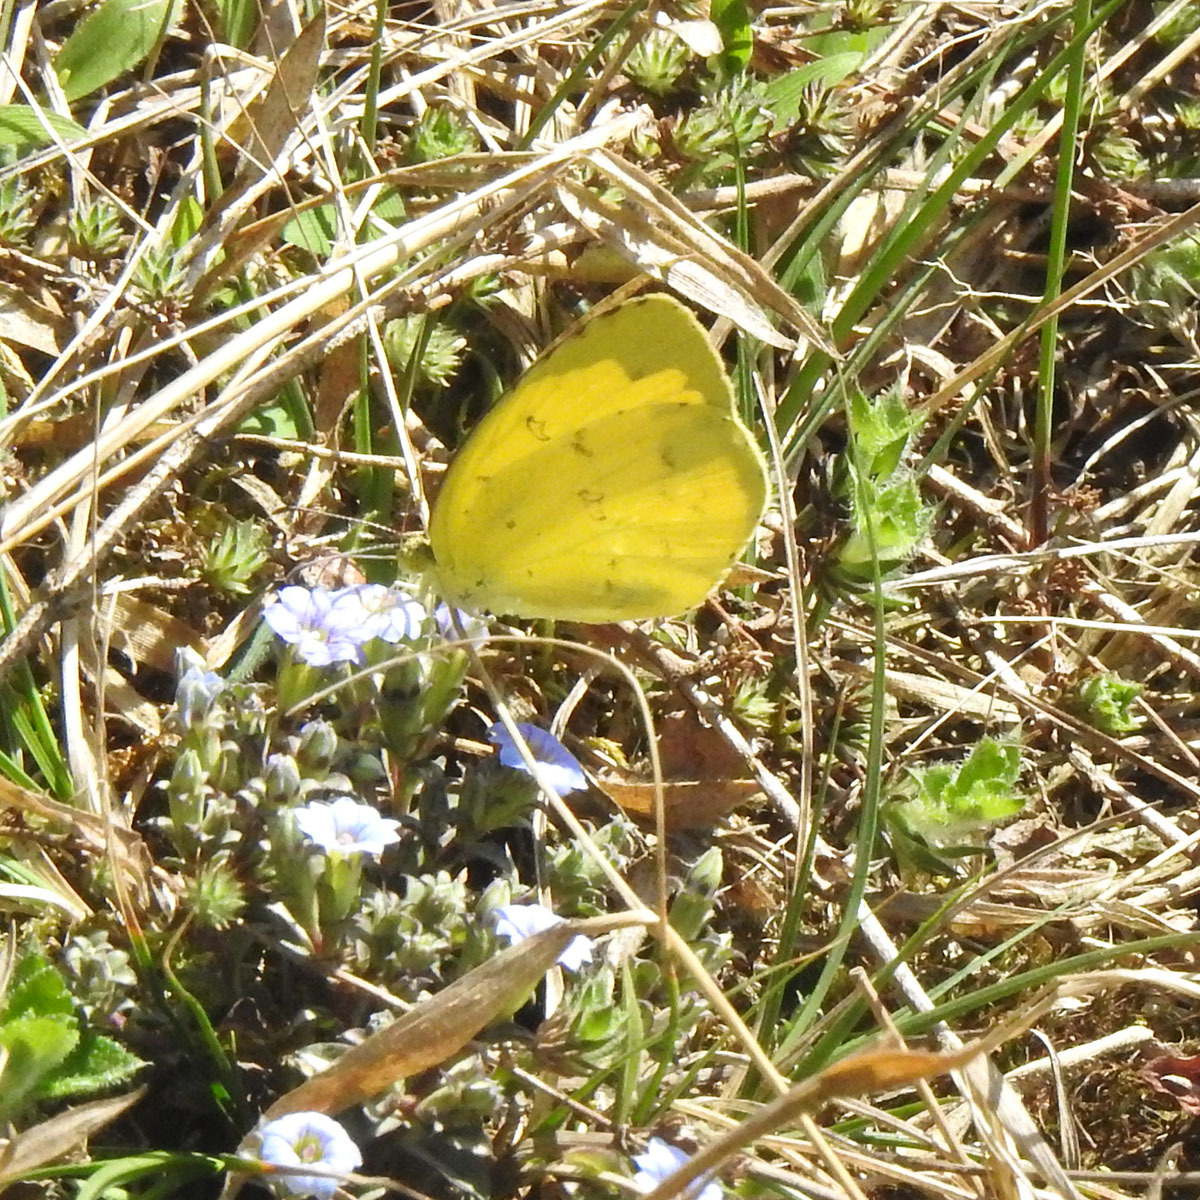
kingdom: Animalia
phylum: Arthropoda
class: Insecta
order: Lepidoptera
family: Pieridae
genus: Eurema
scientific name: Eurema hecabe
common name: Pale grass yellow
